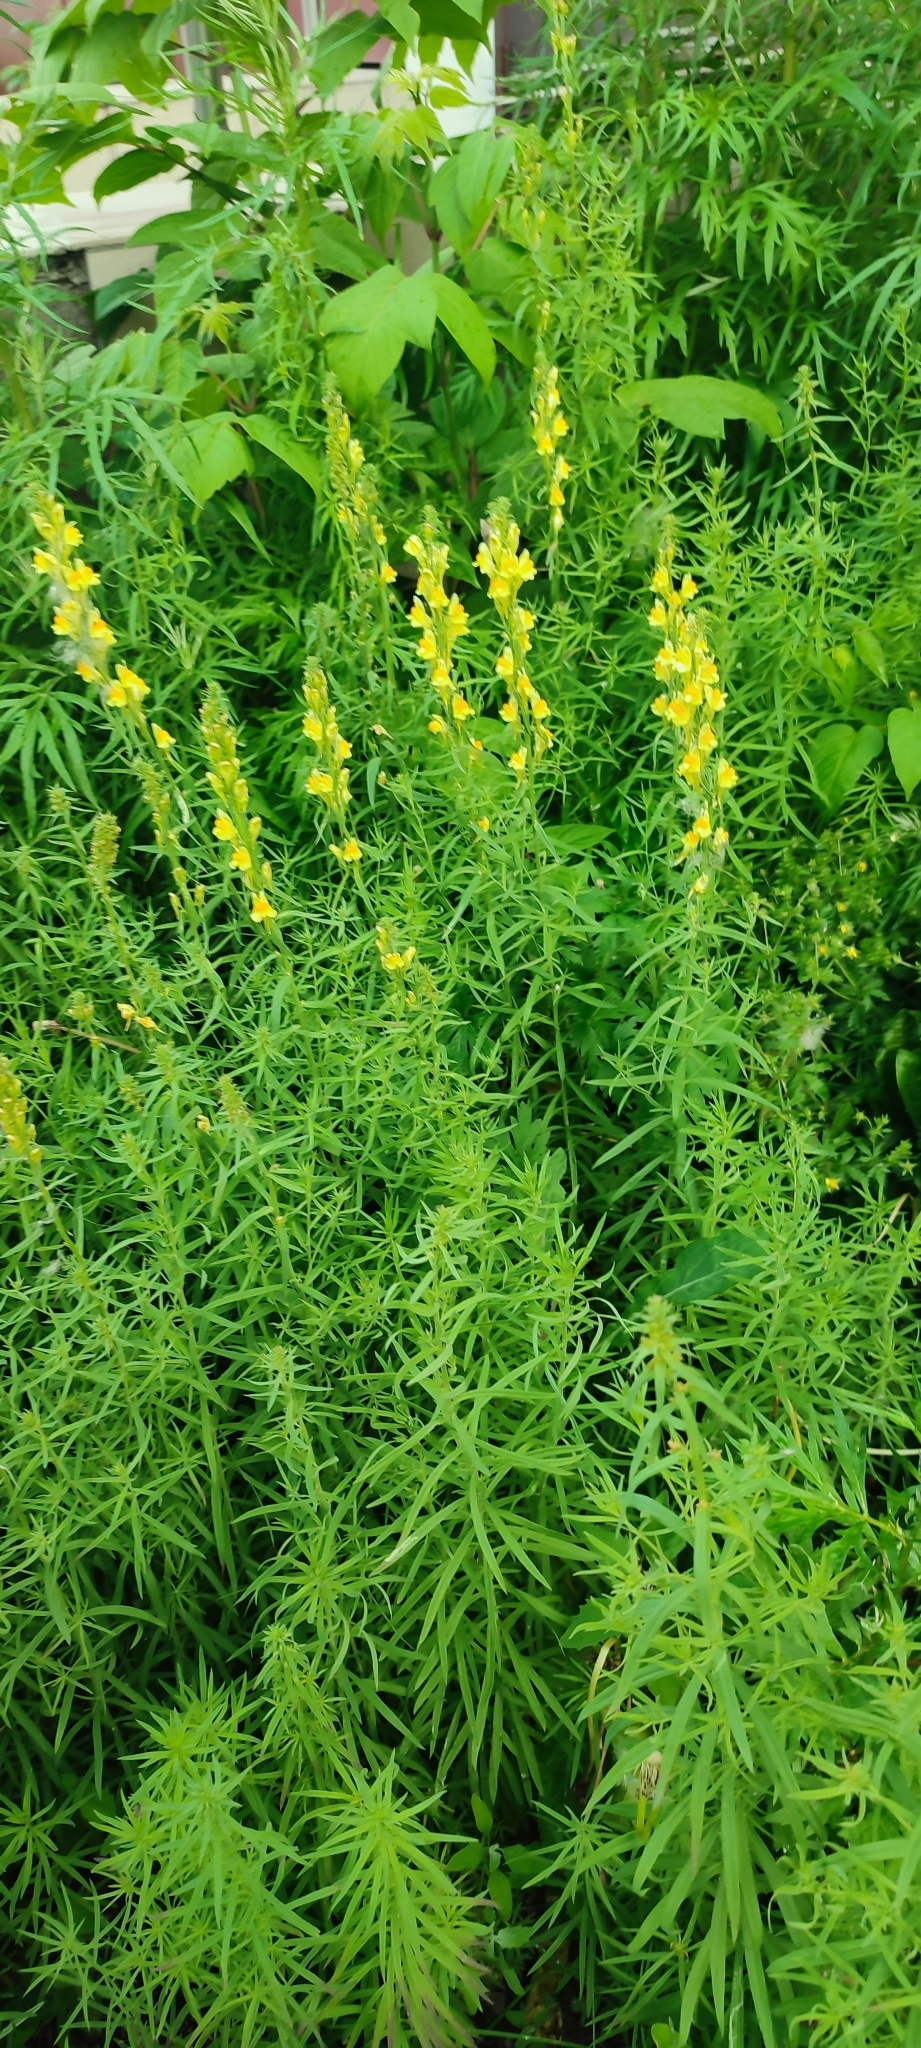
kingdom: Plantae
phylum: Tracheophyta
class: Magnoliopsida
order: Lamiales
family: Plantaginaceae
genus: Linaria
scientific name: Linaria vulgaris
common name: Butter and eggs
